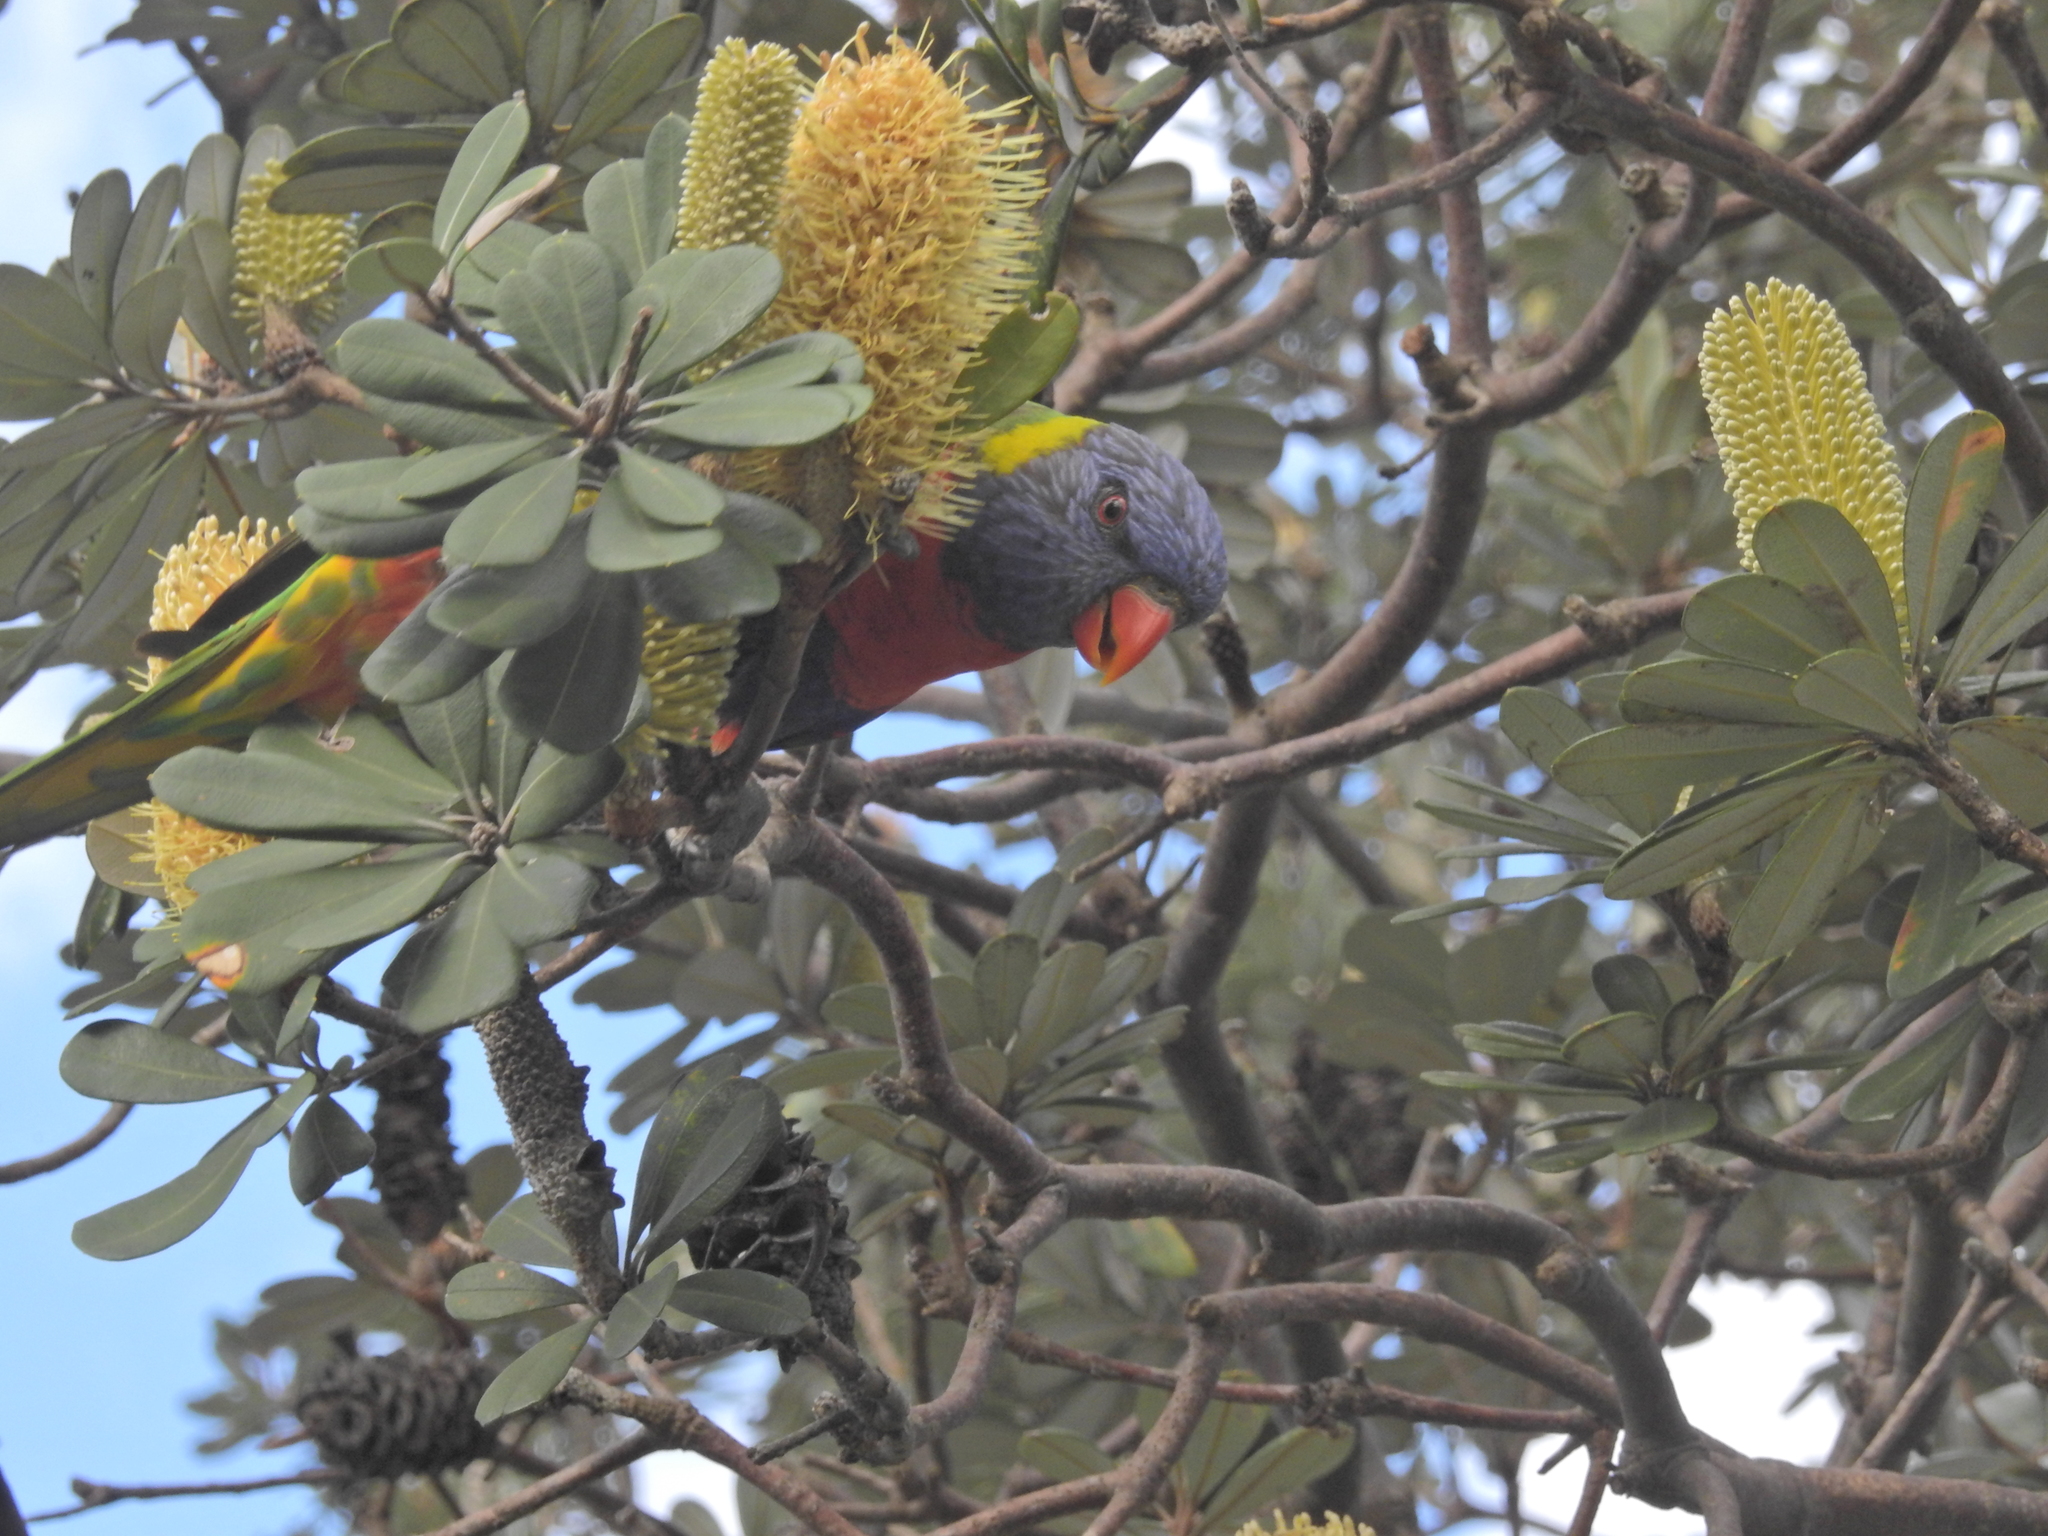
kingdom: Animalia
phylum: Chordata
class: Aves
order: Psittaciformes
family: Psittacidae
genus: Trichoglossus
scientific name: Trichoglossus haematodus
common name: Coconut lorikeet
